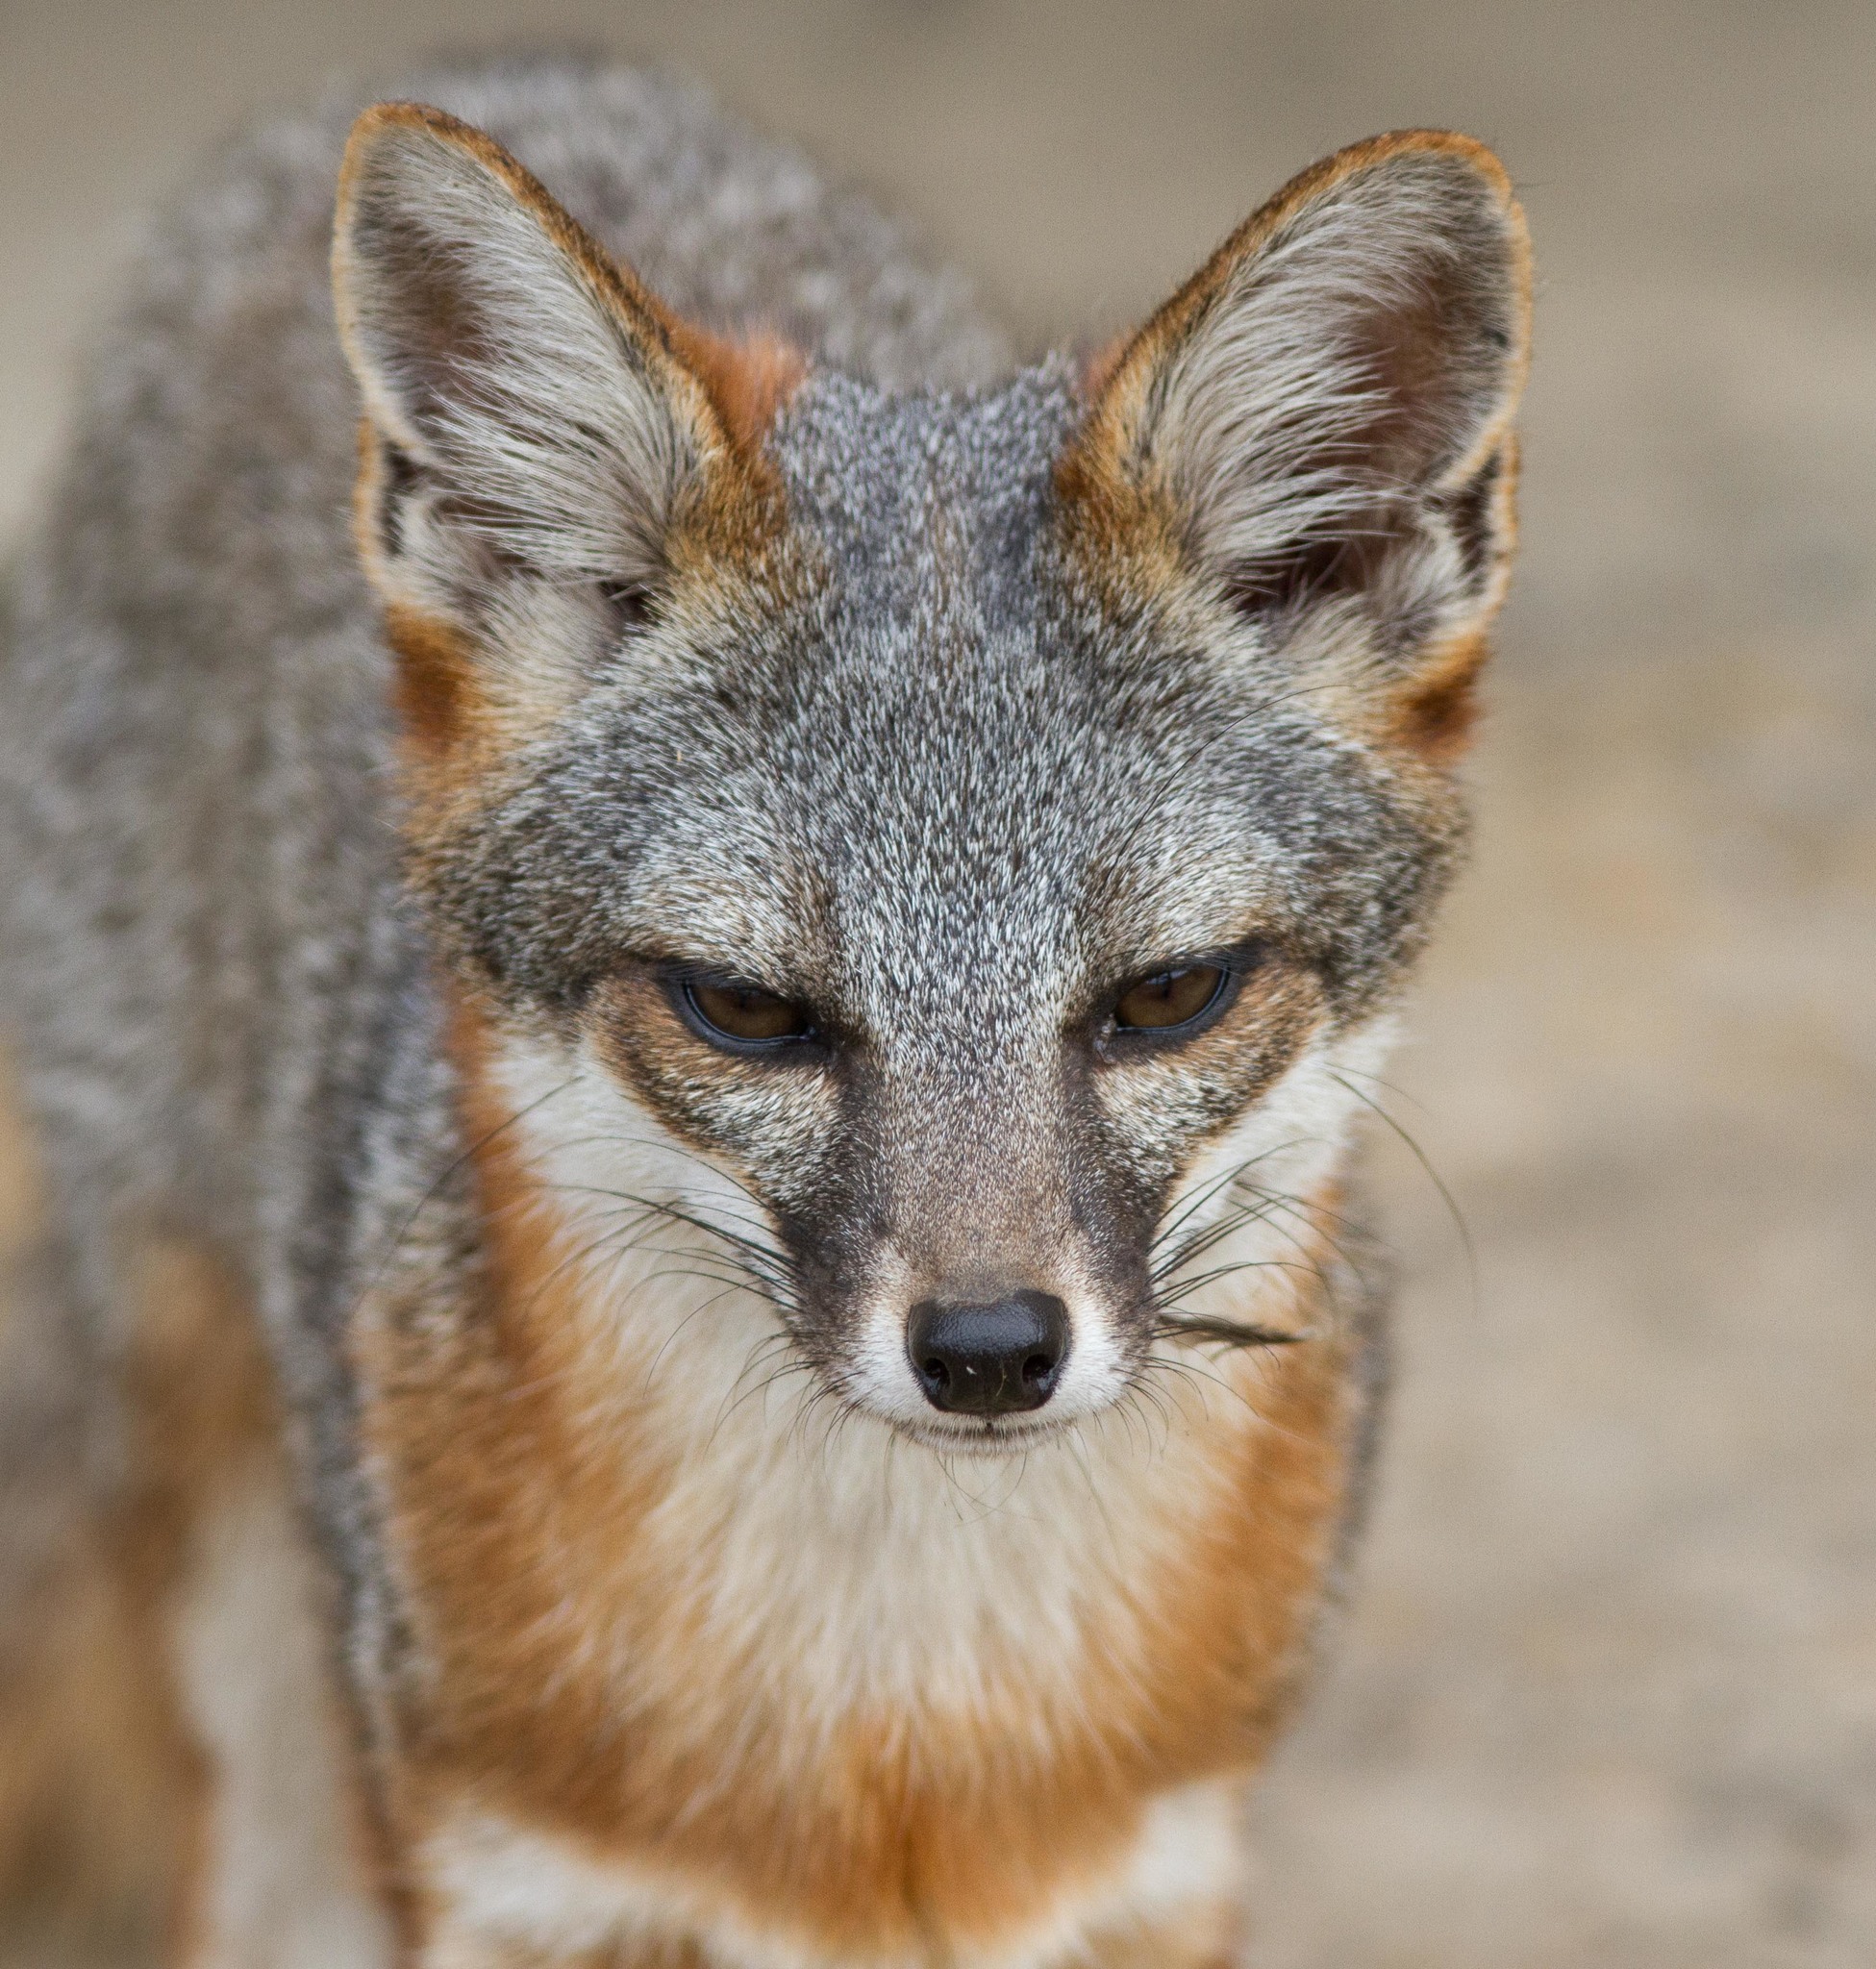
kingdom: Animalia
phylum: Chordata
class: Mammalia
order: Carnivora
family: Canidae
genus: Urocyon
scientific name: Urocyon littoralis
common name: Island gray fox
